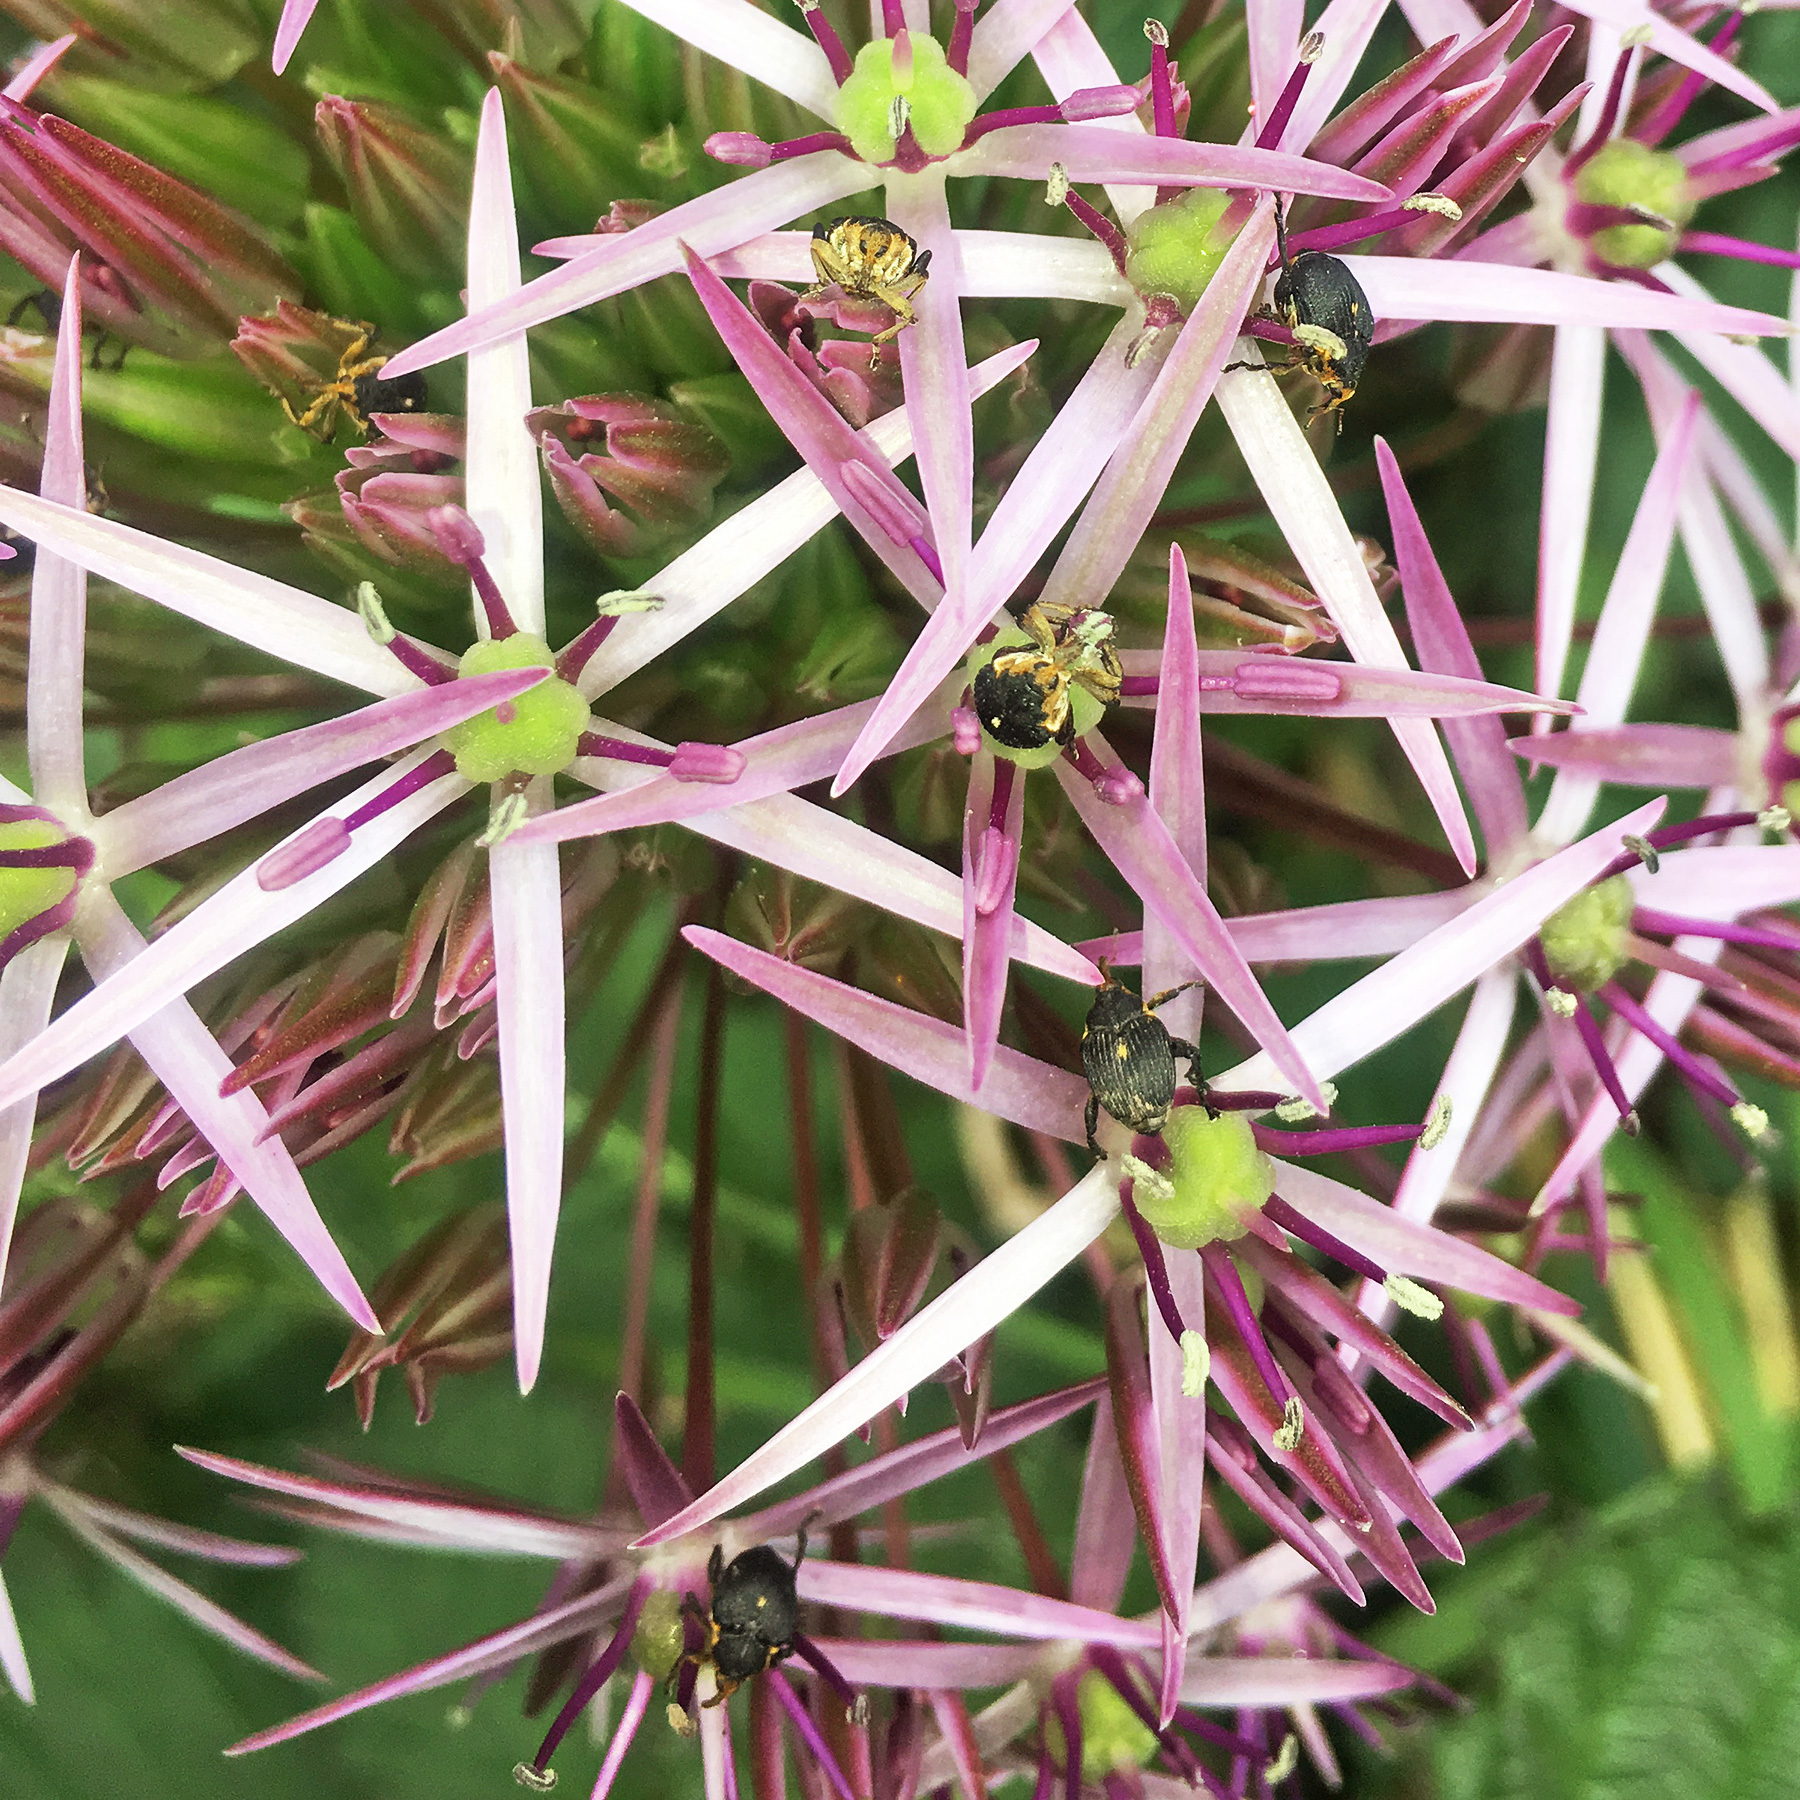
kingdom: Animalia
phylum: Arthropoda
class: Insecta
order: Coleoptera
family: Curculionidae
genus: Mononychus
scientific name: Mononychus punctumalbum
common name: Iris weevil
